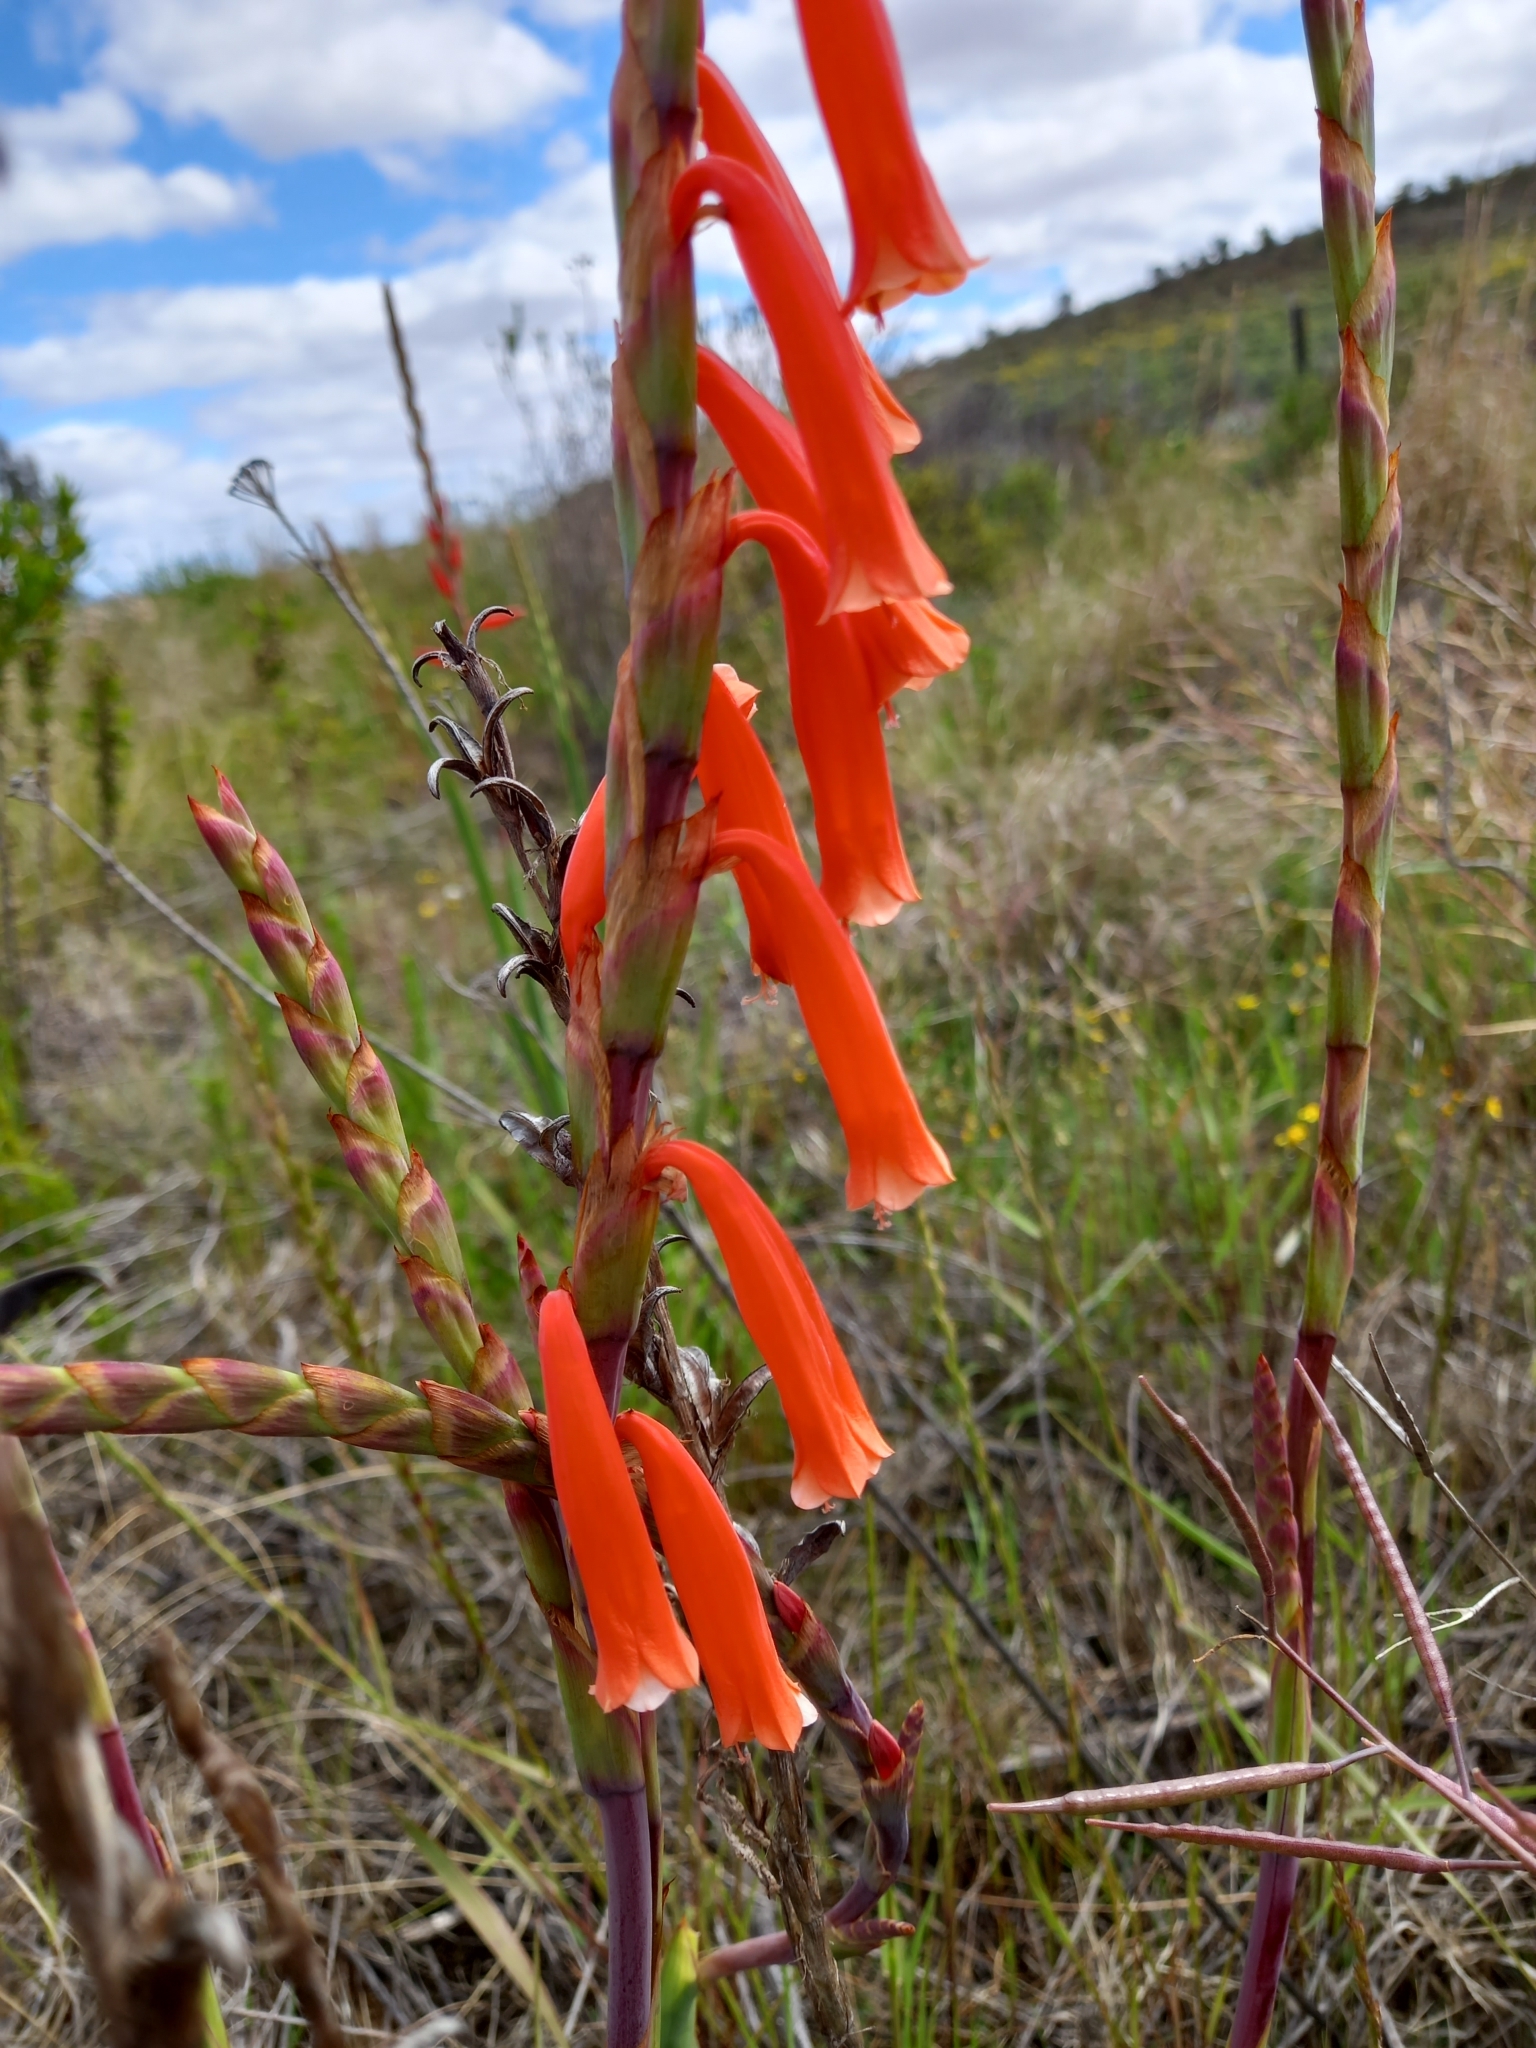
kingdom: Plantae
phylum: Tracheophyta
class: Liliopsida
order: Asparagales
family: Iridaceae
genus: Watsonia
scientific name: Watsonia aletroides
